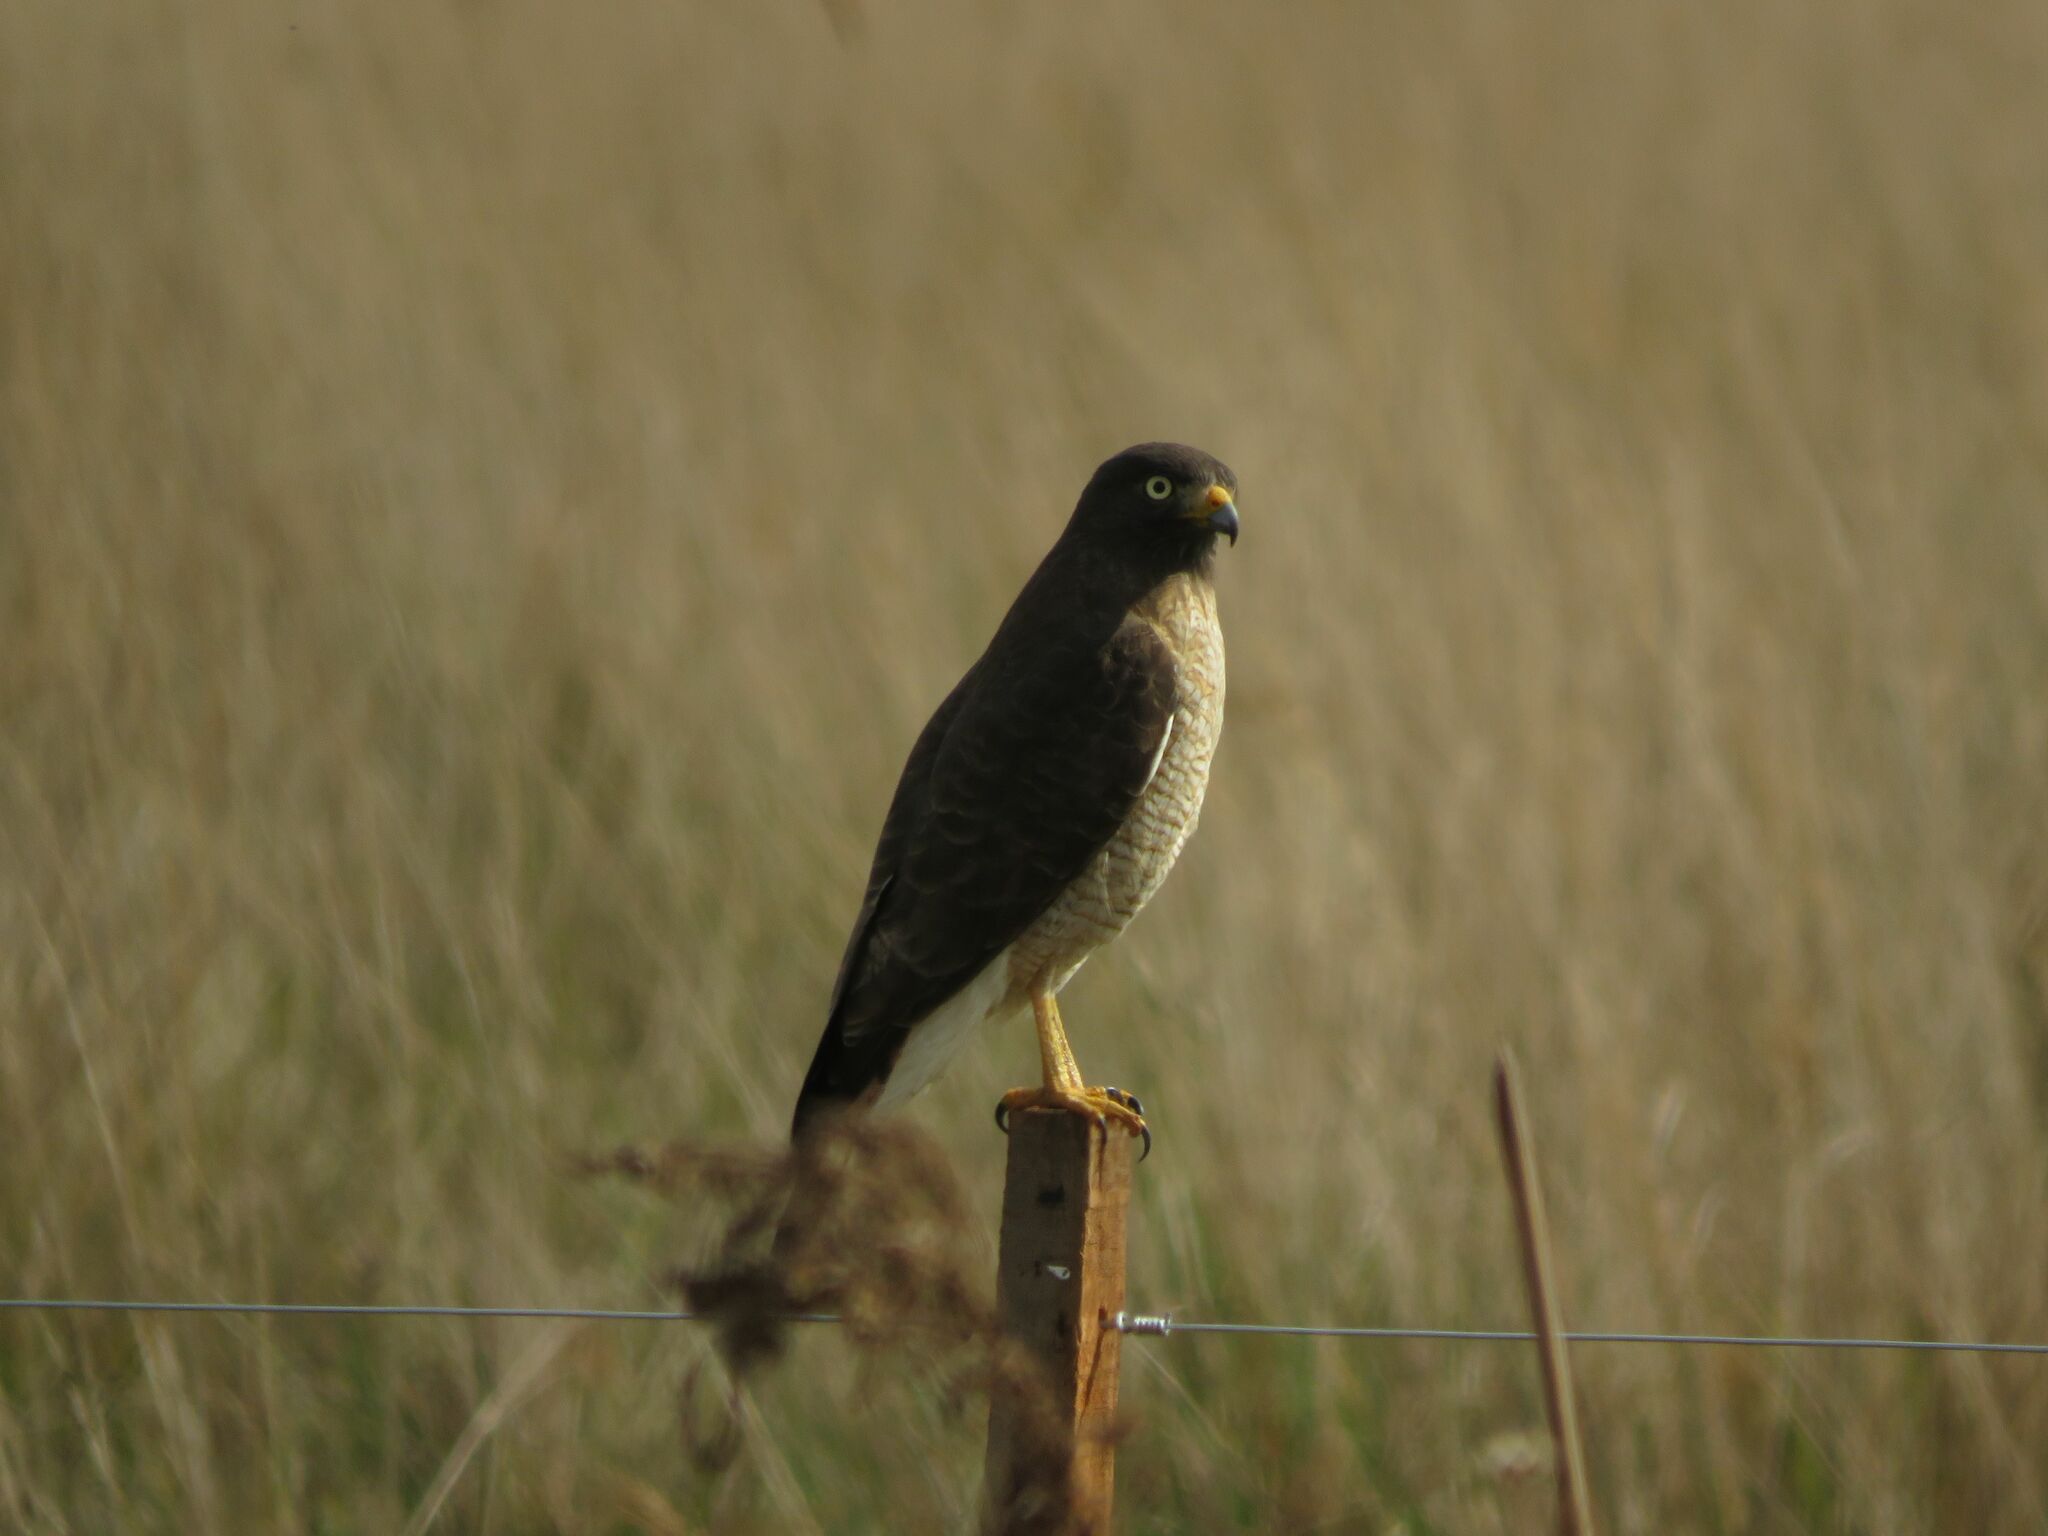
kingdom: Animalia
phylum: Chordata
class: Aves
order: Accipitriformes
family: Accipitridae
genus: Rupornis
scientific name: Rupornis magnirostris
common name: Roadside hawk
